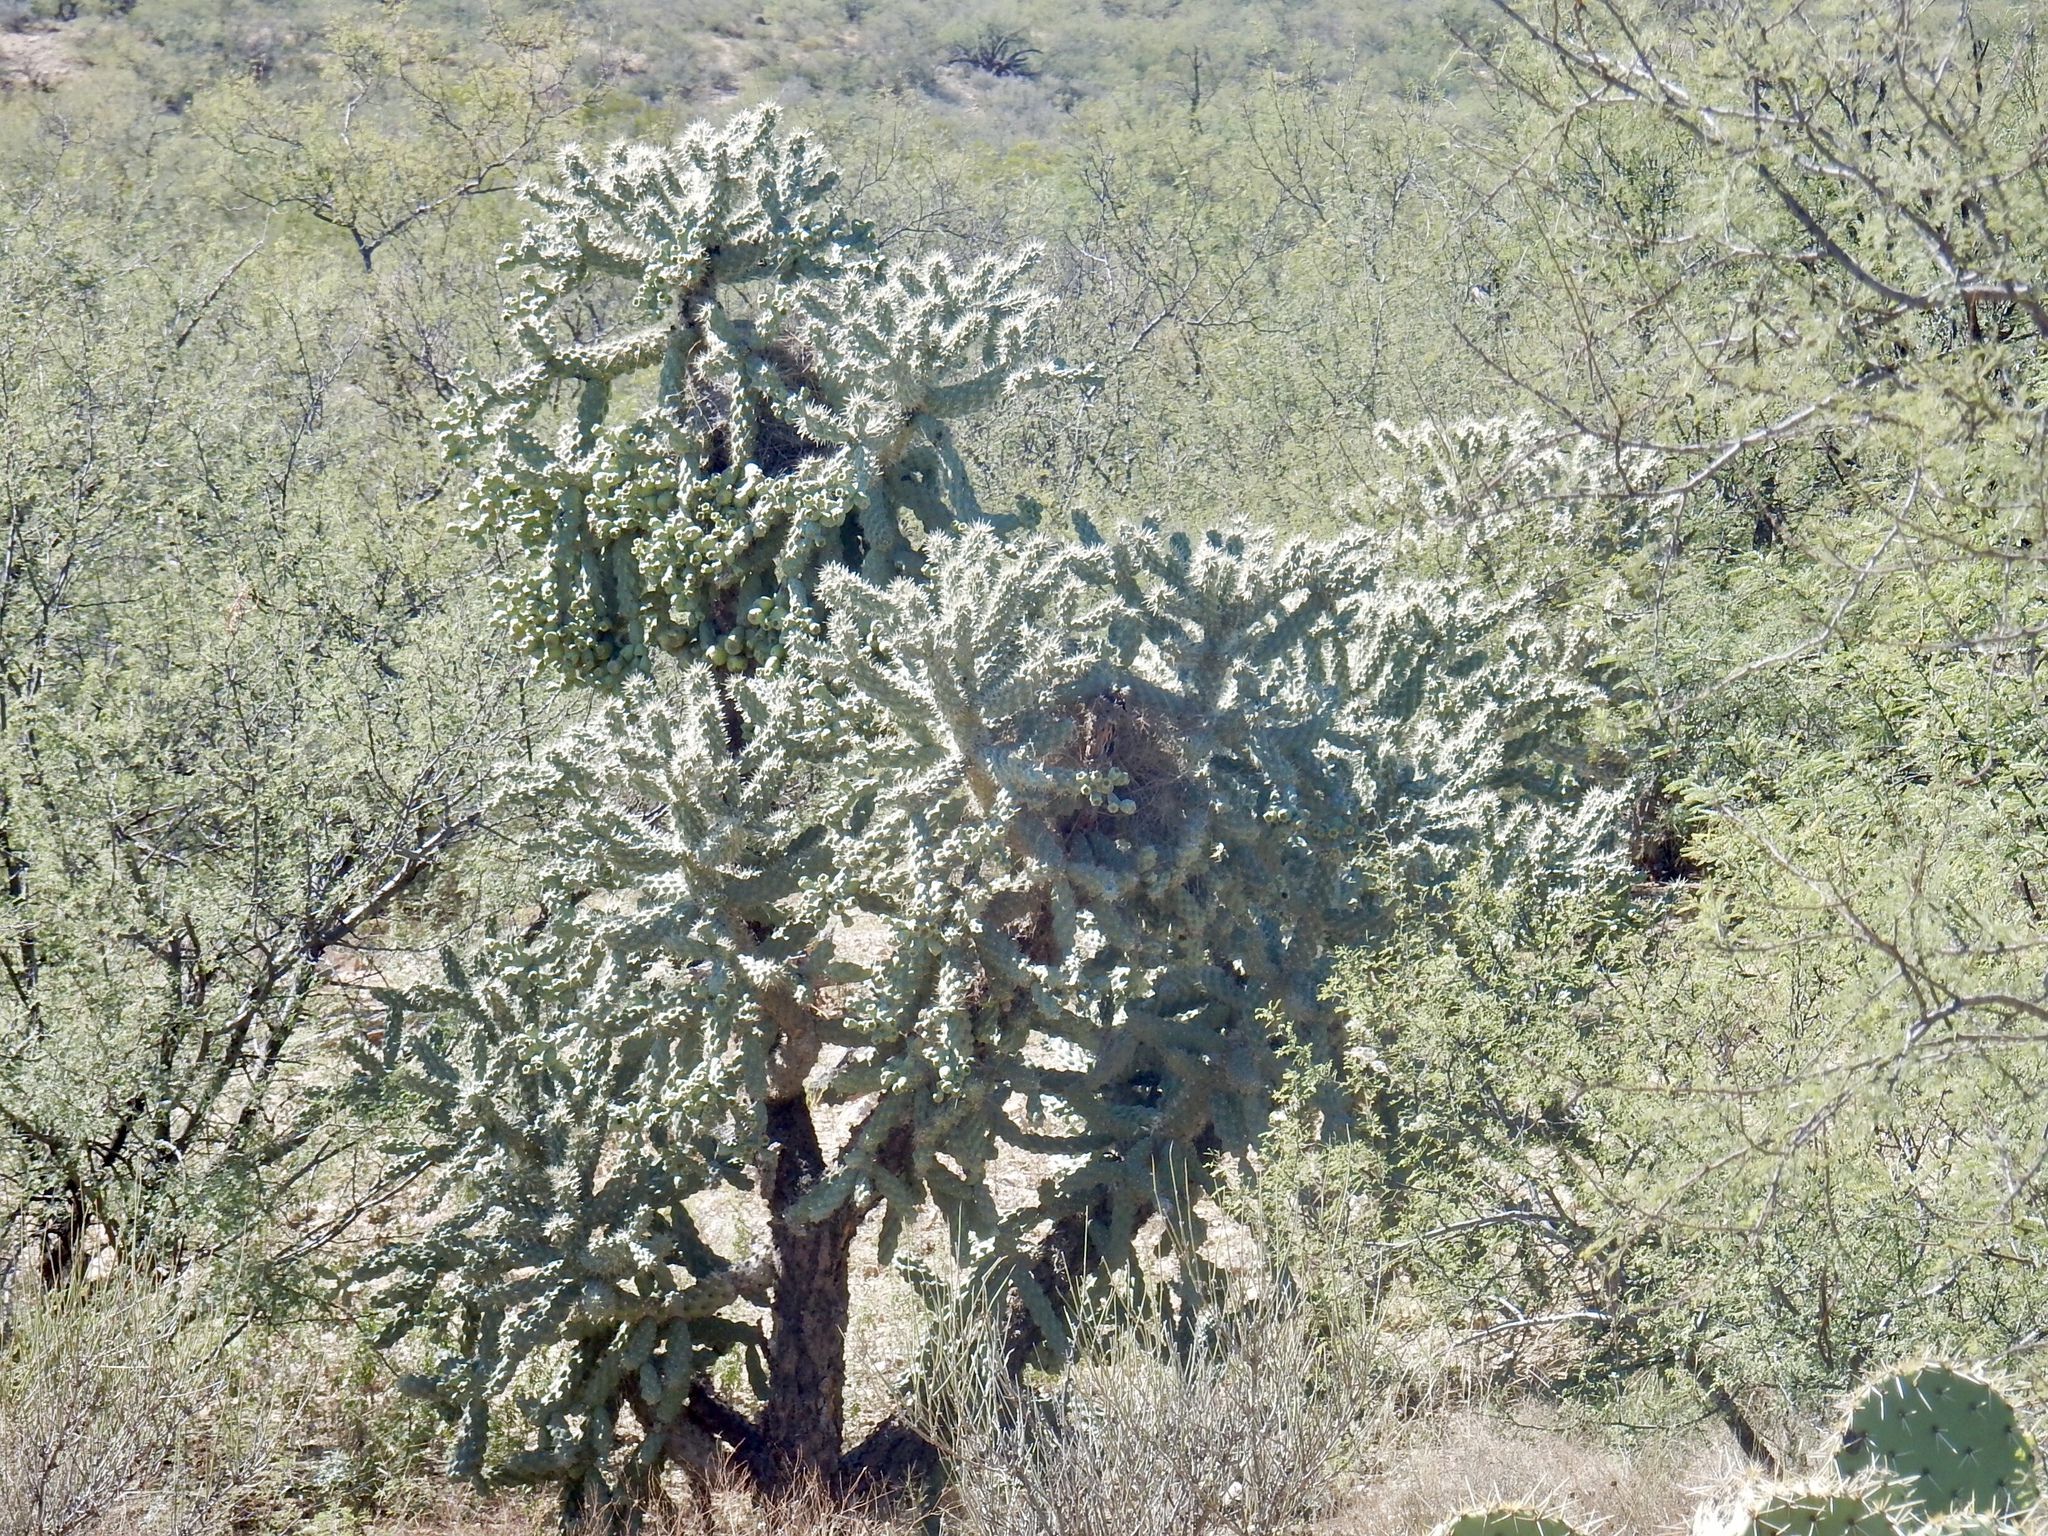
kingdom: Plantae
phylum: Tracheophyta
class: Magnoliopsida
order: Caryophyllales
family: Cactaceae
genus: Cylindropuntia
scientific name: Cylindropuntia fulgida
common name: Jumping cholla
